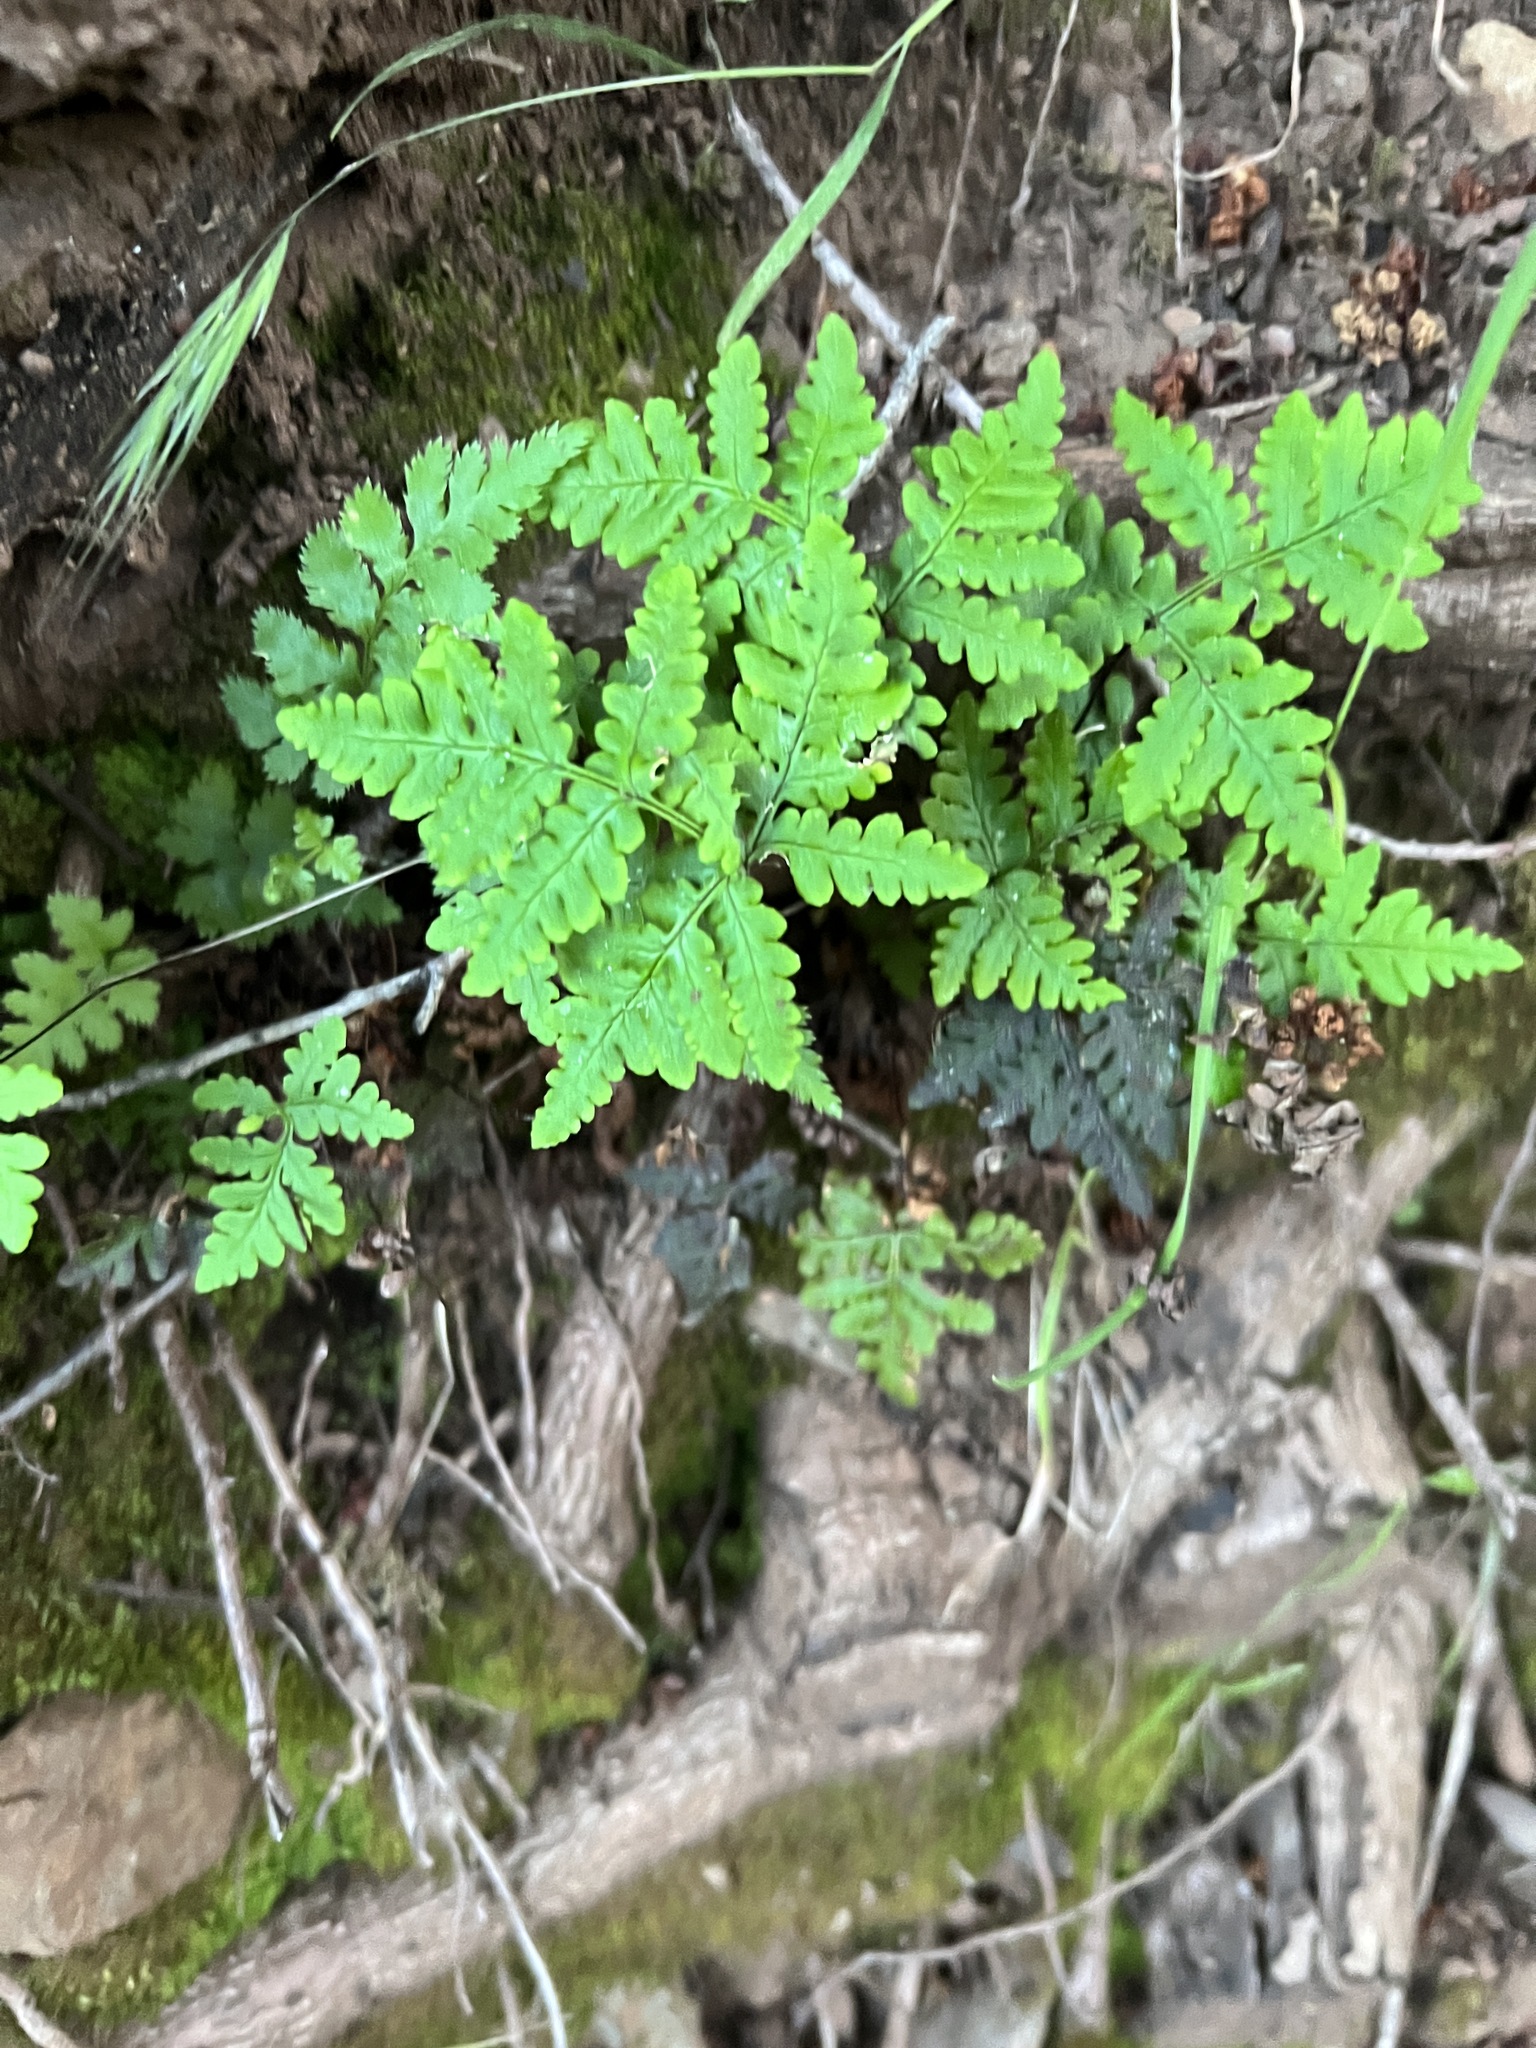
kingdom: Plantae
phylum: Tracheophyta
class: Polypodiopsida
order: Polypodiales
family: Pteridaceae
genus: Pentagramma
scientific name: Pentagramma triangularis
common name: Gold fern
